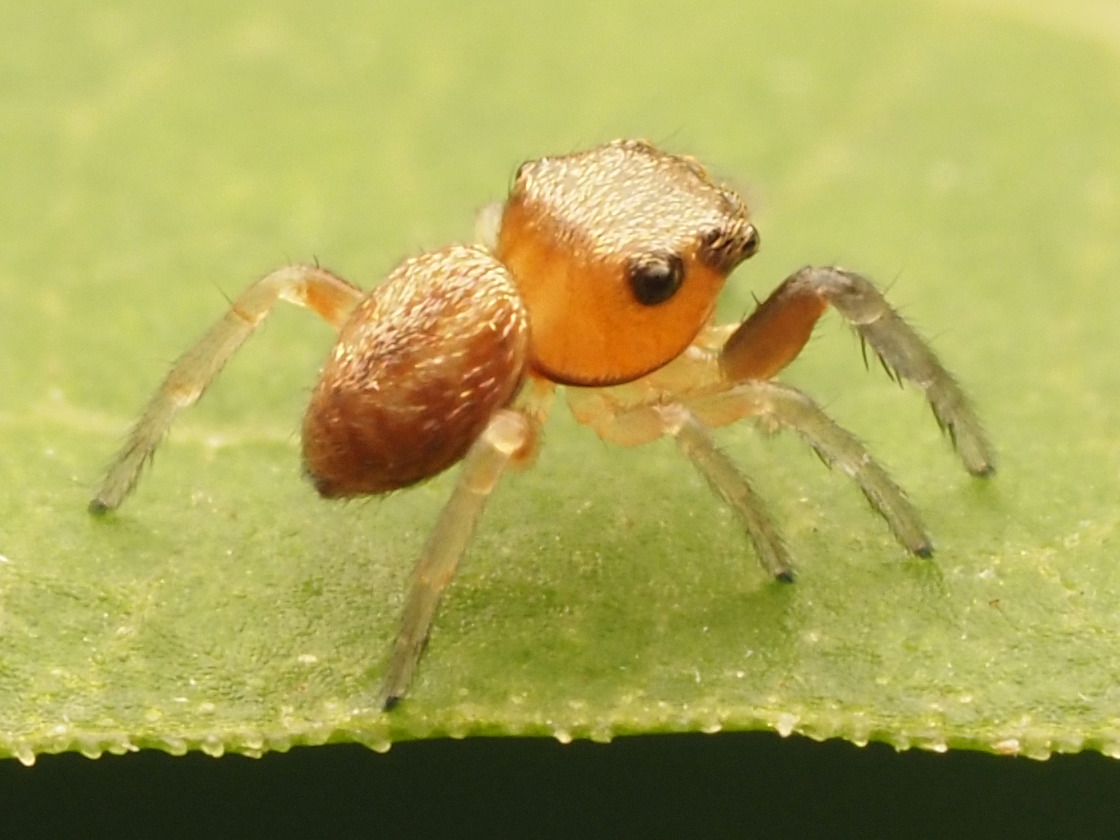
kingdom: Animalia
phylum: Arthropoda
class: Arachnida
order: Araneae
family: Salticidae
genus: Zygoballus
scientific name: Zygoballus sexpunctatus
